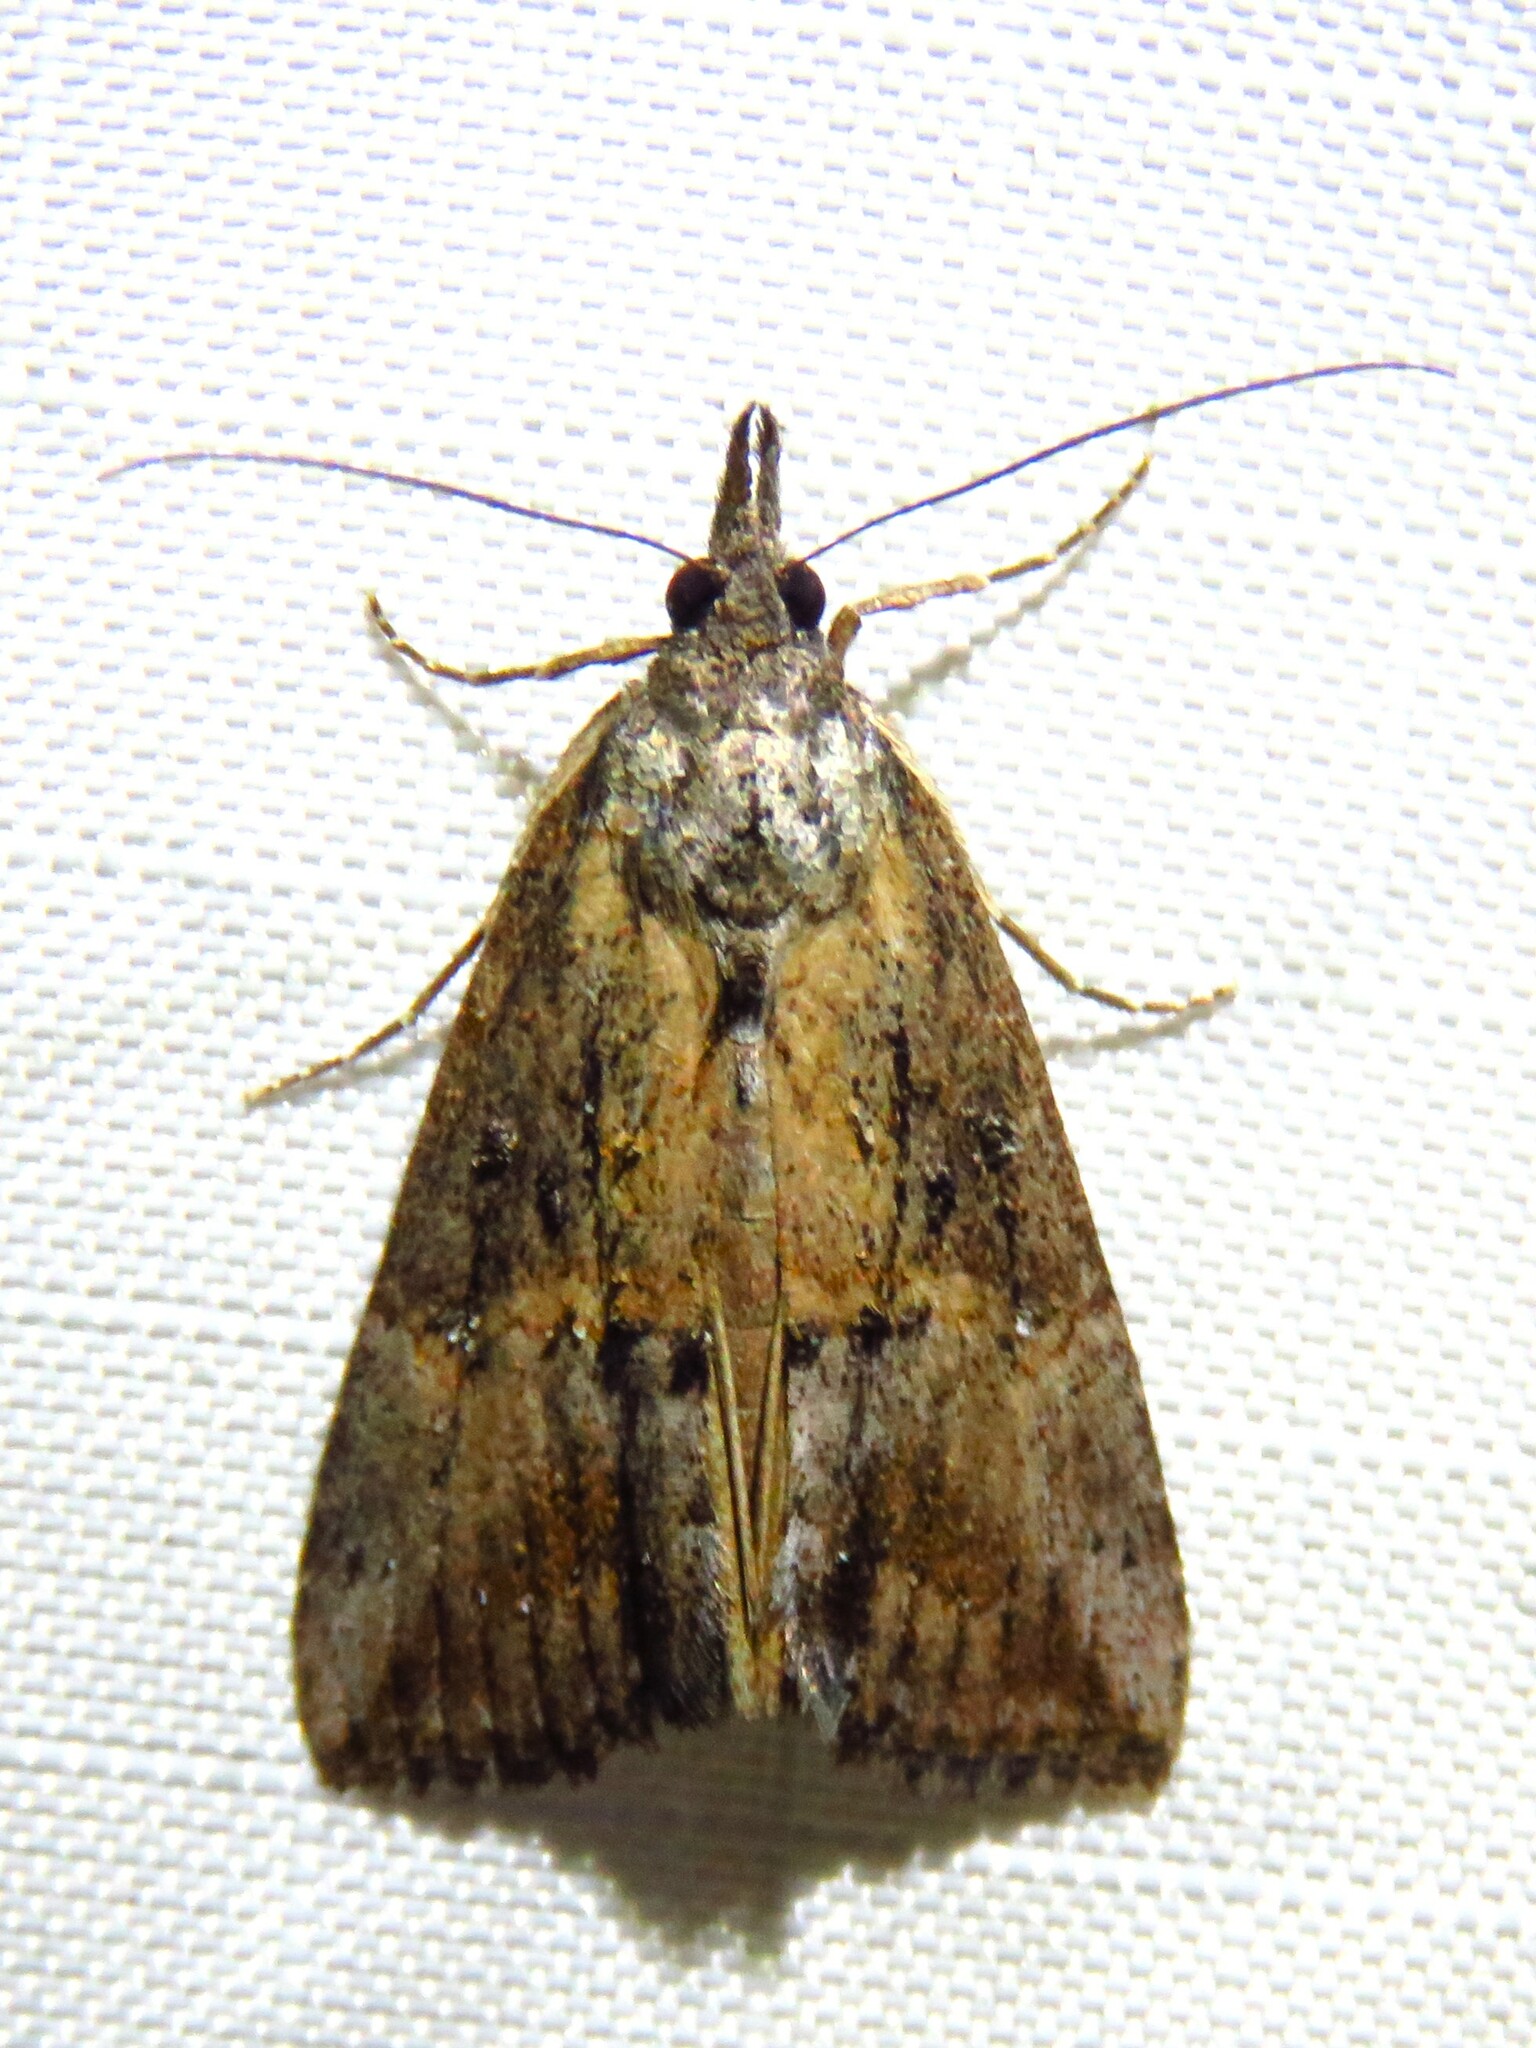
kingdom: Animalia
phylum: Arthropoda
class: Insecta
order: Lepidoptera
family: Erebidae
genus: Hypena
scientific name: Hypena scabra
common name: Green cloverworm
